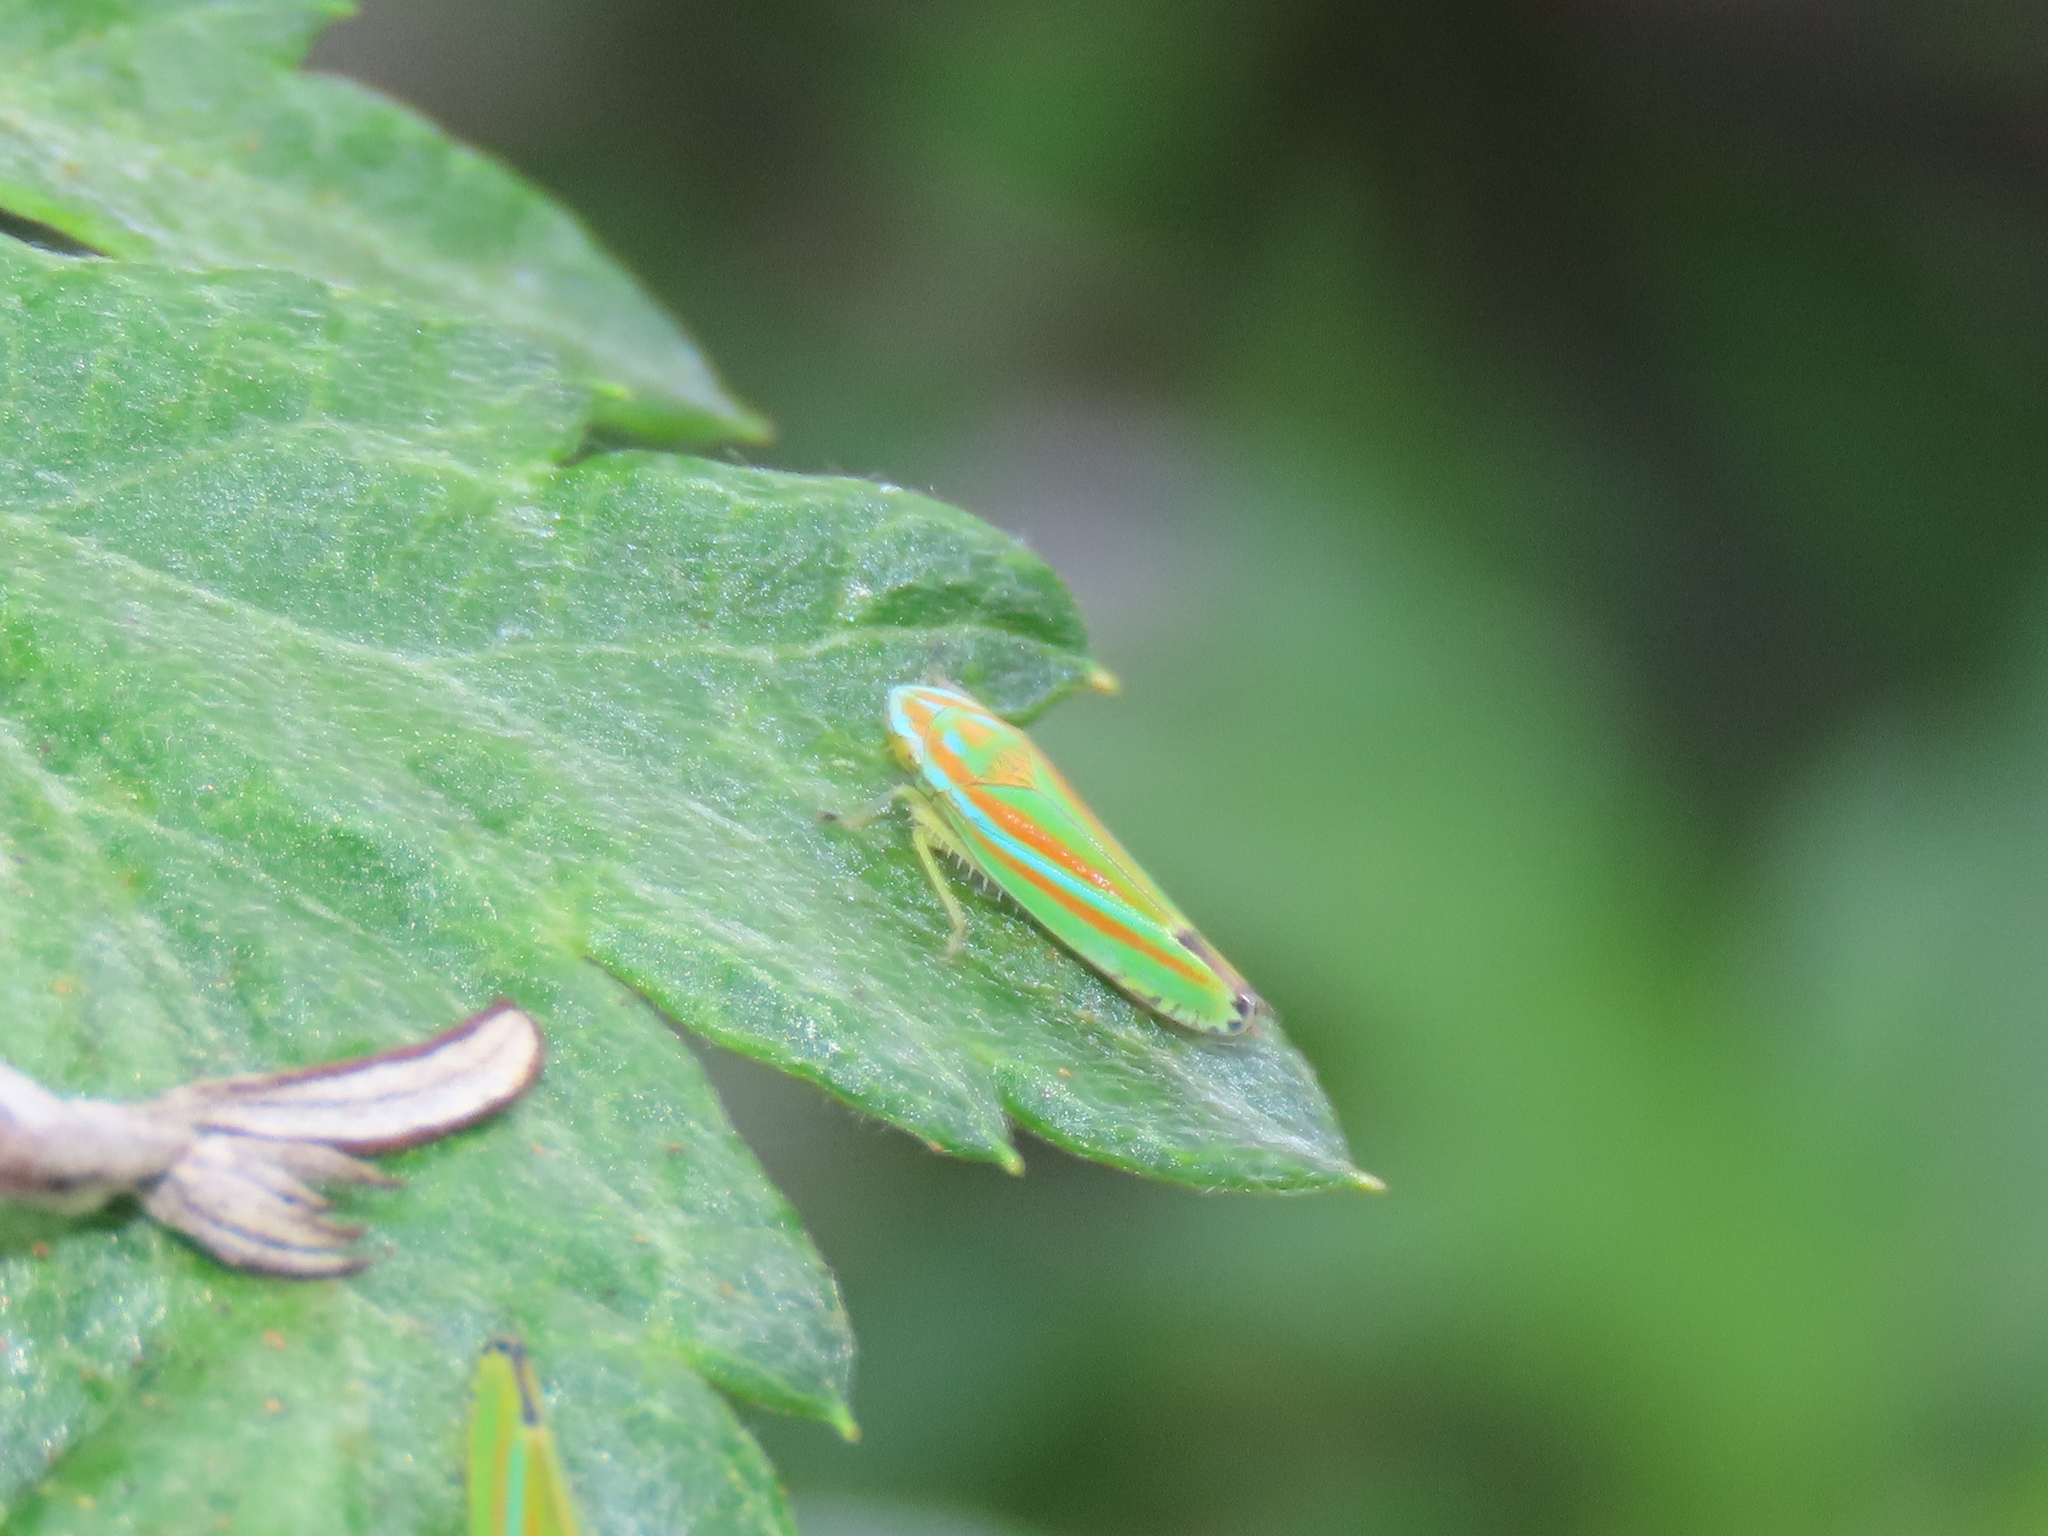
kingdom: Animalia
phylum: Arthropoda
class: Insecta
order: Hemiptera
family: Cicadellidae
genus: Graphocephala
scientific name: Graphocephala versuta
